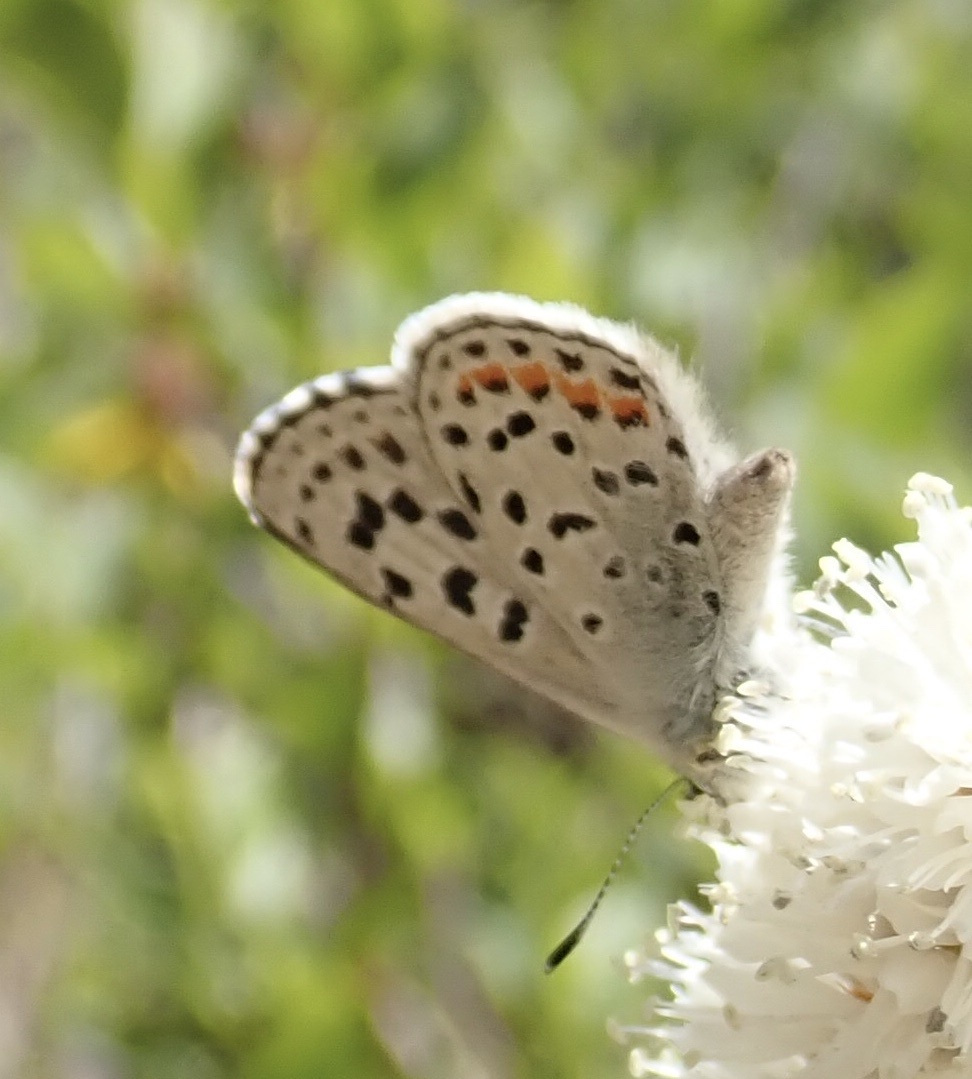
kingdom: Animalia
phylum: Arthropoda
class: Insecta
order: Lepidoptera
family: Lycaenidae
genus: Euphilotes
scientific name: Euphilotes
